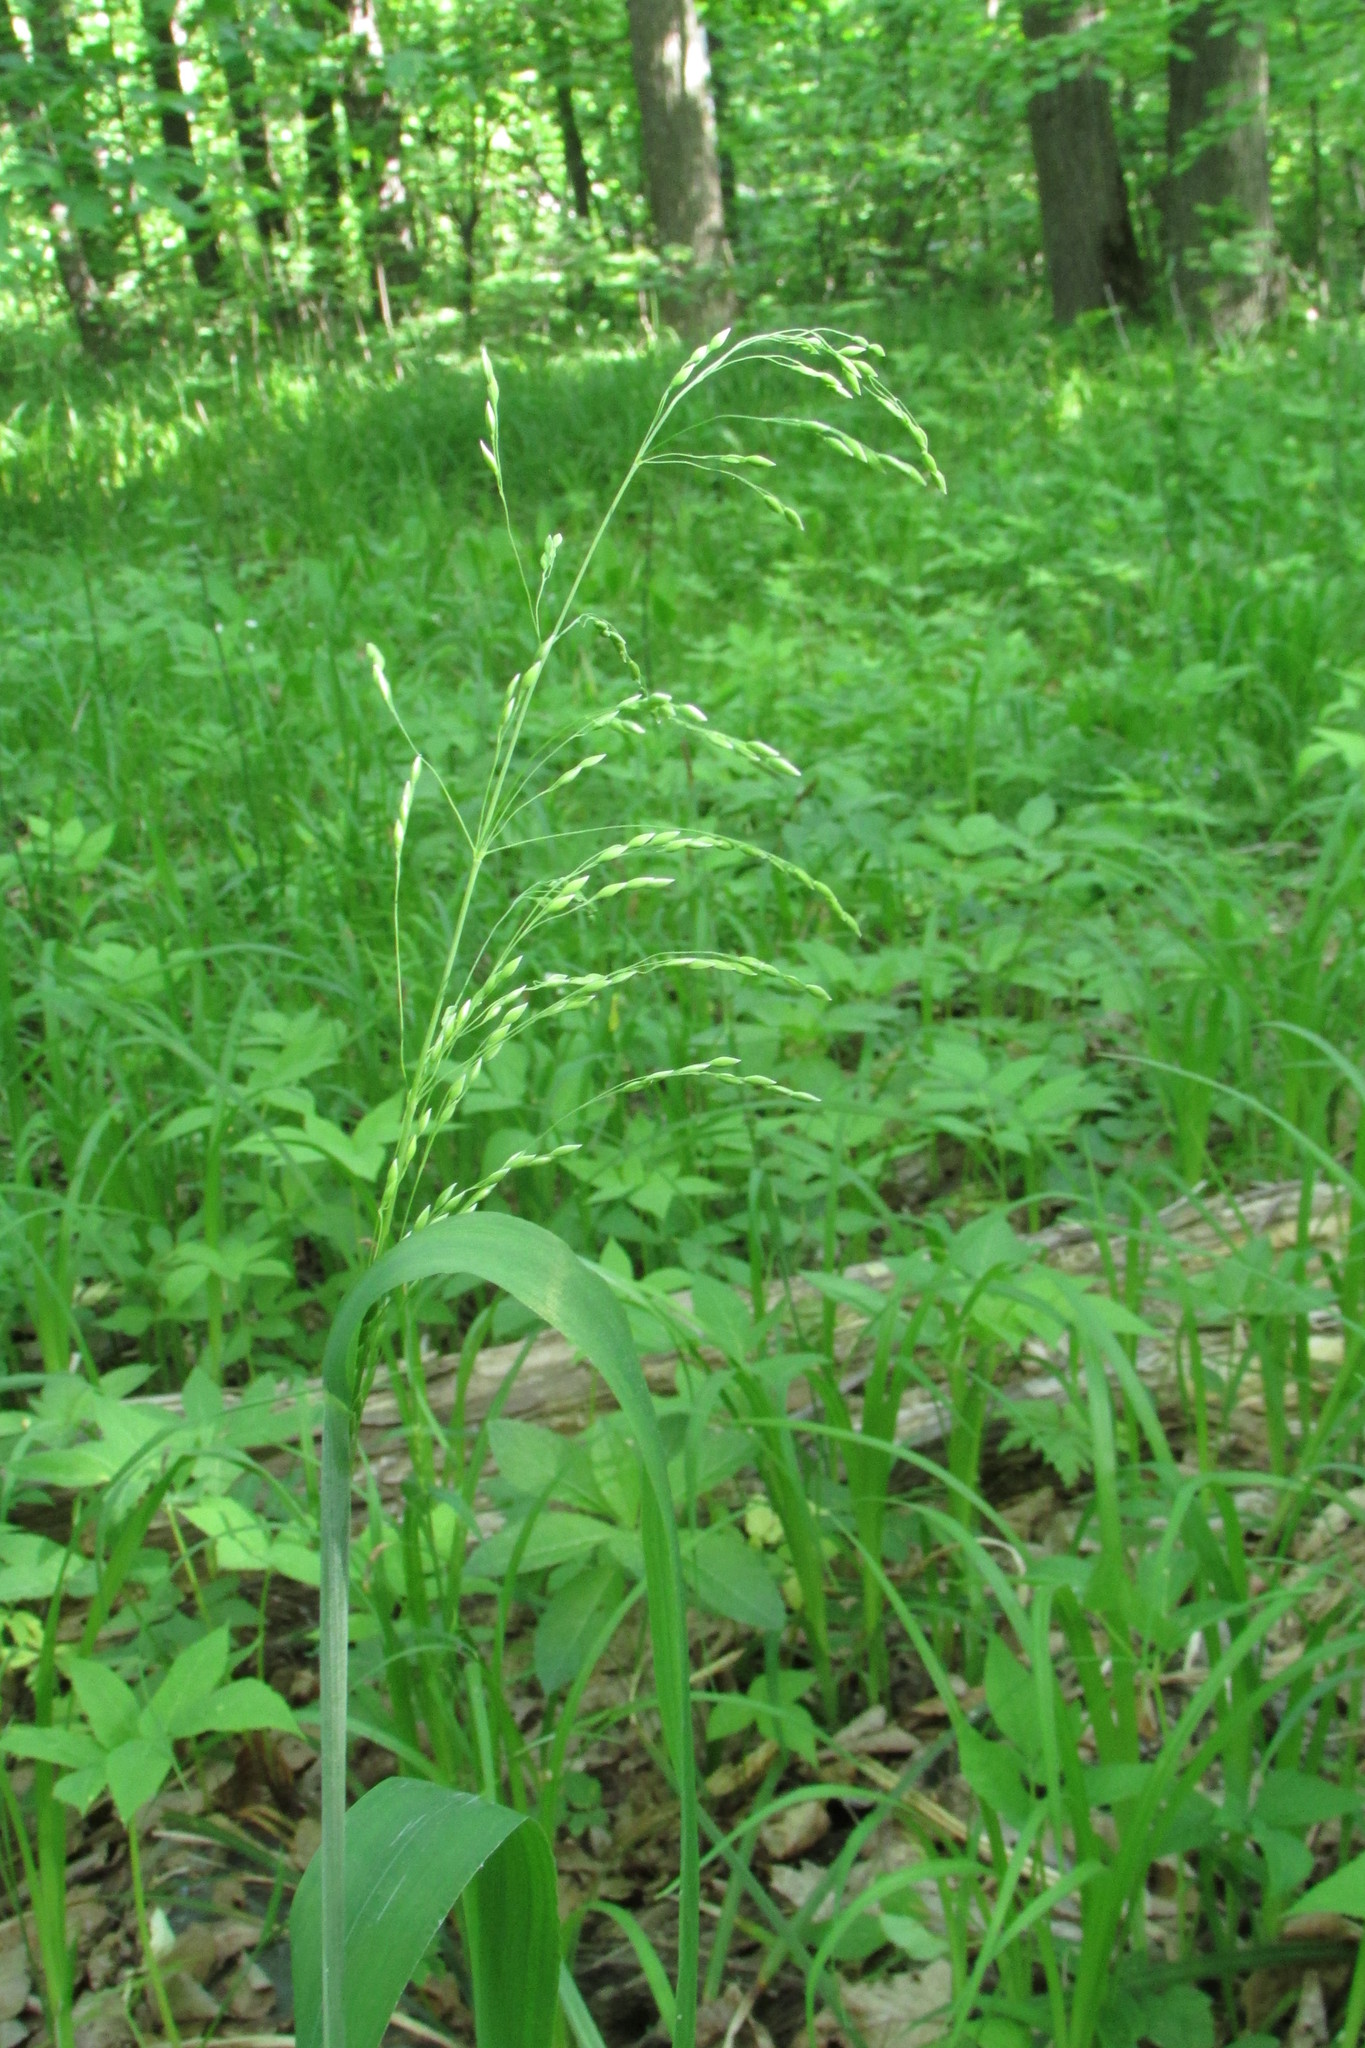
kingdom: Plantae
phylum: Tracheophyta
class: Liliopsida
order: Poales
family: Poaceae
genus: Milium
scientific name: Milium effusum
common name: Wood millet
